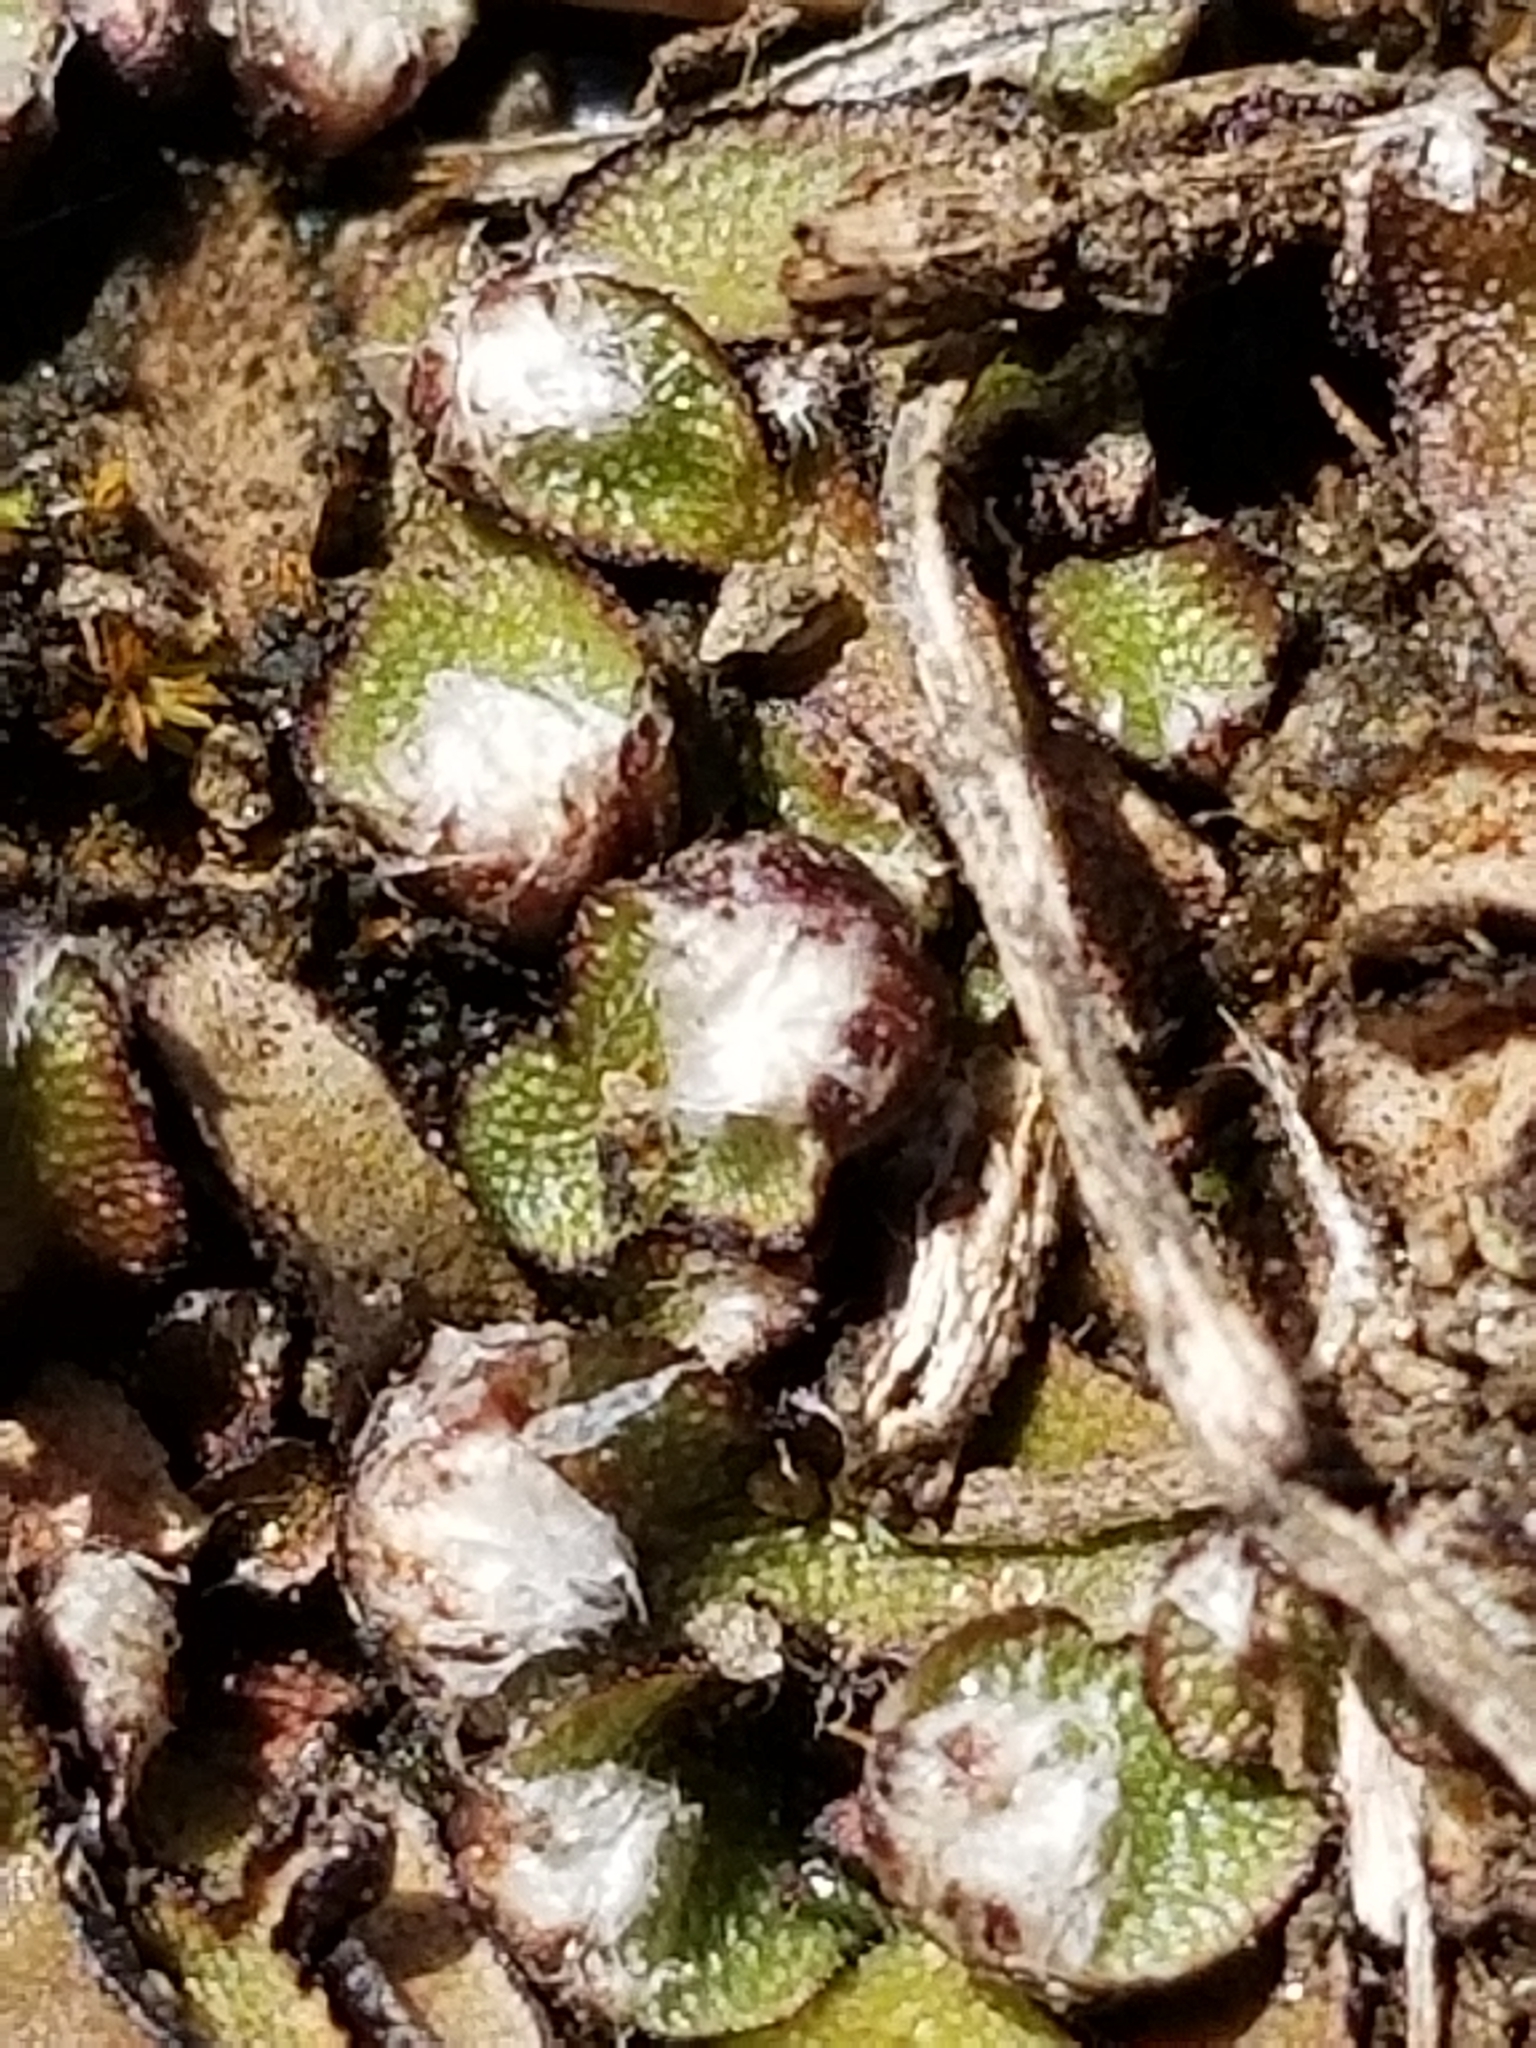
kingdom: Plantae
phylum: Marchantiophyta
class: Marchantiopsida
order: Marchantiales
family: Aytoniaceae
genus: Mannia
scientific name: Mannia fragrans
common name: Fragrant macewort
